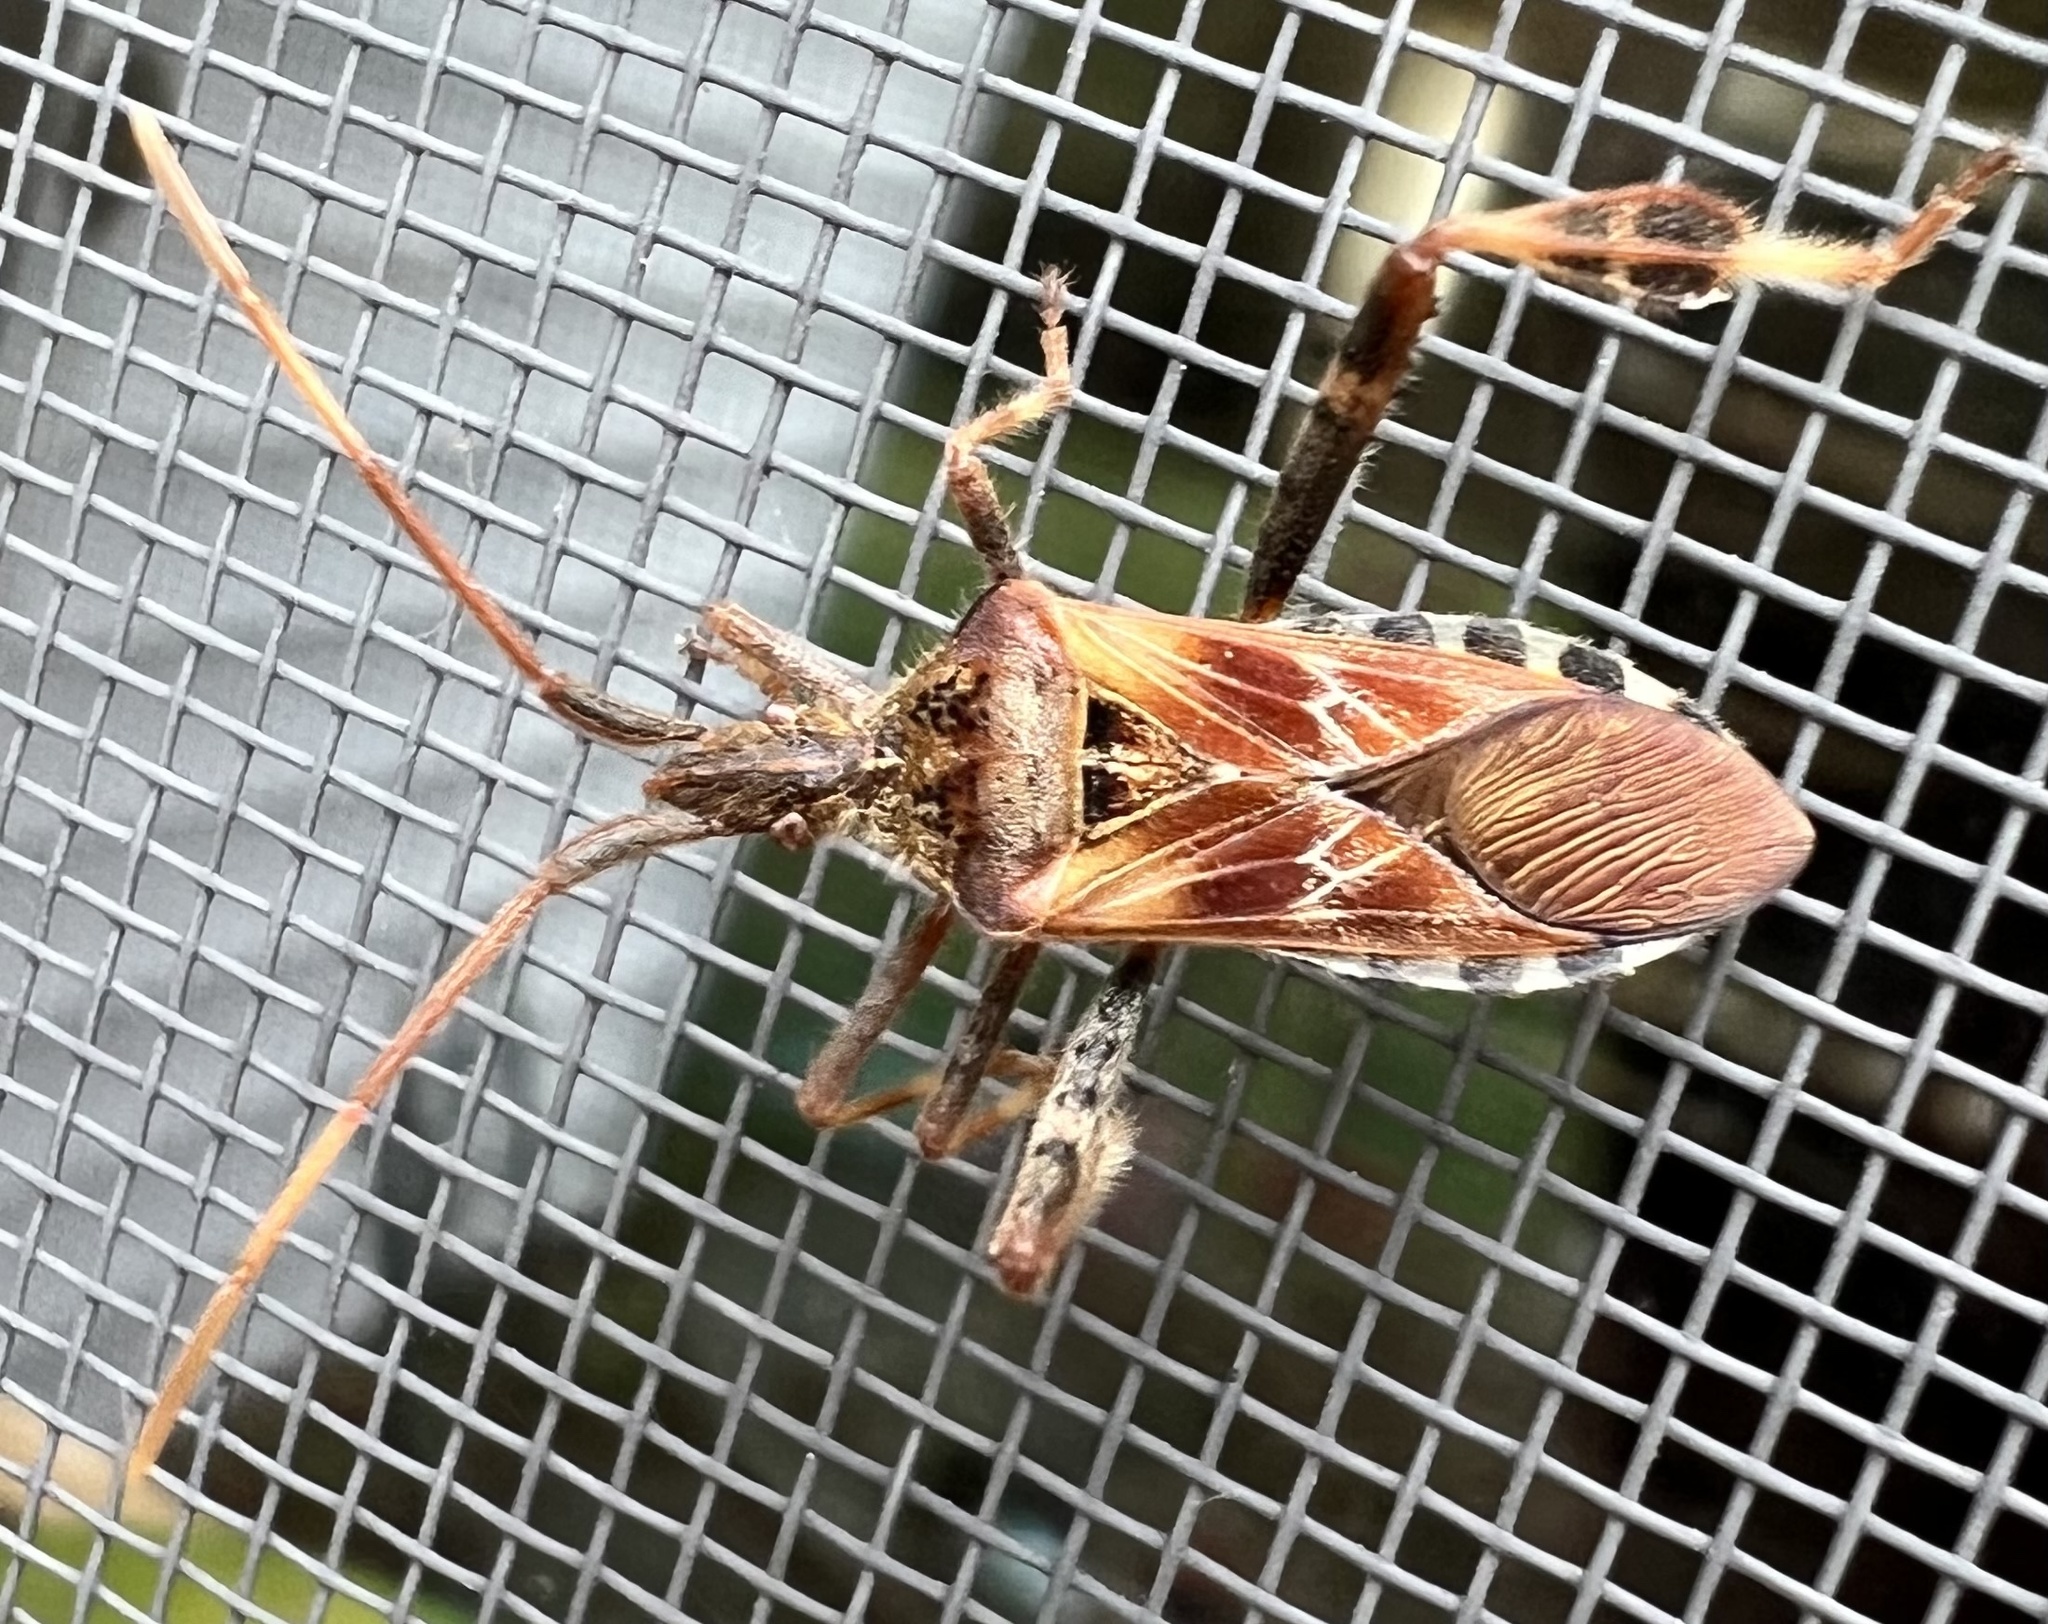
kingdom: Animalia
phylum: Arthropoda
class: Insecta
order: Hemiptera
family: Coreidae
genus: Leptoglossus
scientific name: Leptoglossus occidentalis
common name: Western conifer-seed bug
